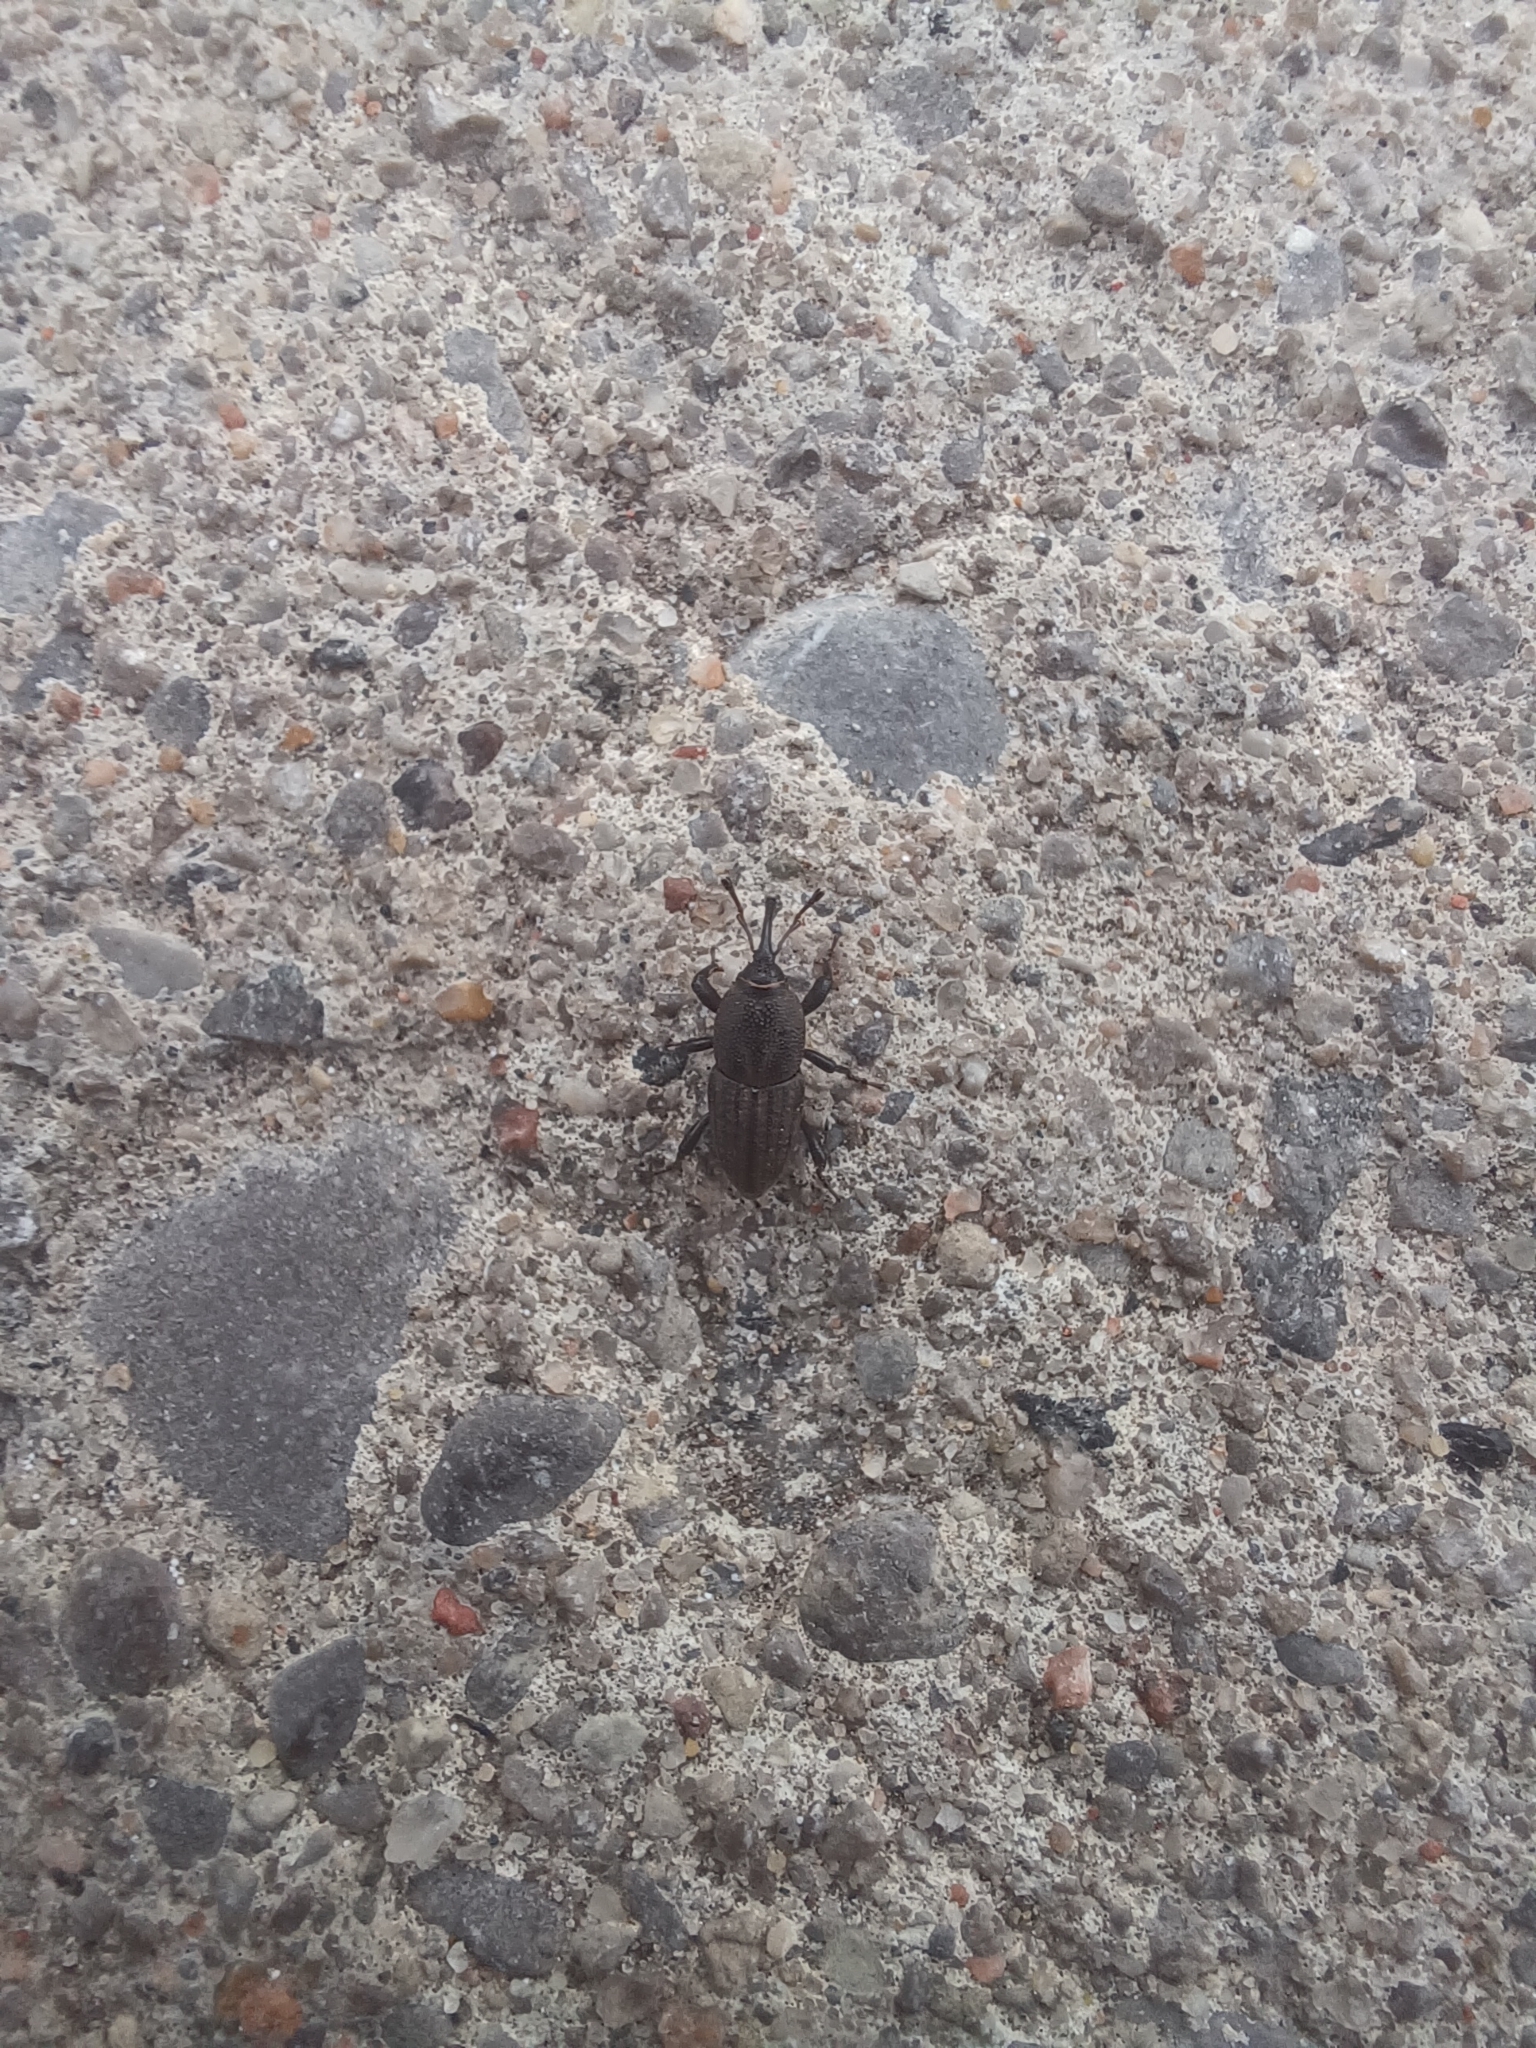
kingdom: Animalia
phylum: Arthropoda
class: Insecta
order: Coleoptera
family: Dryophthoridae
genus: Sphenophorus
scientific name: Sphenophorus interstitialis
